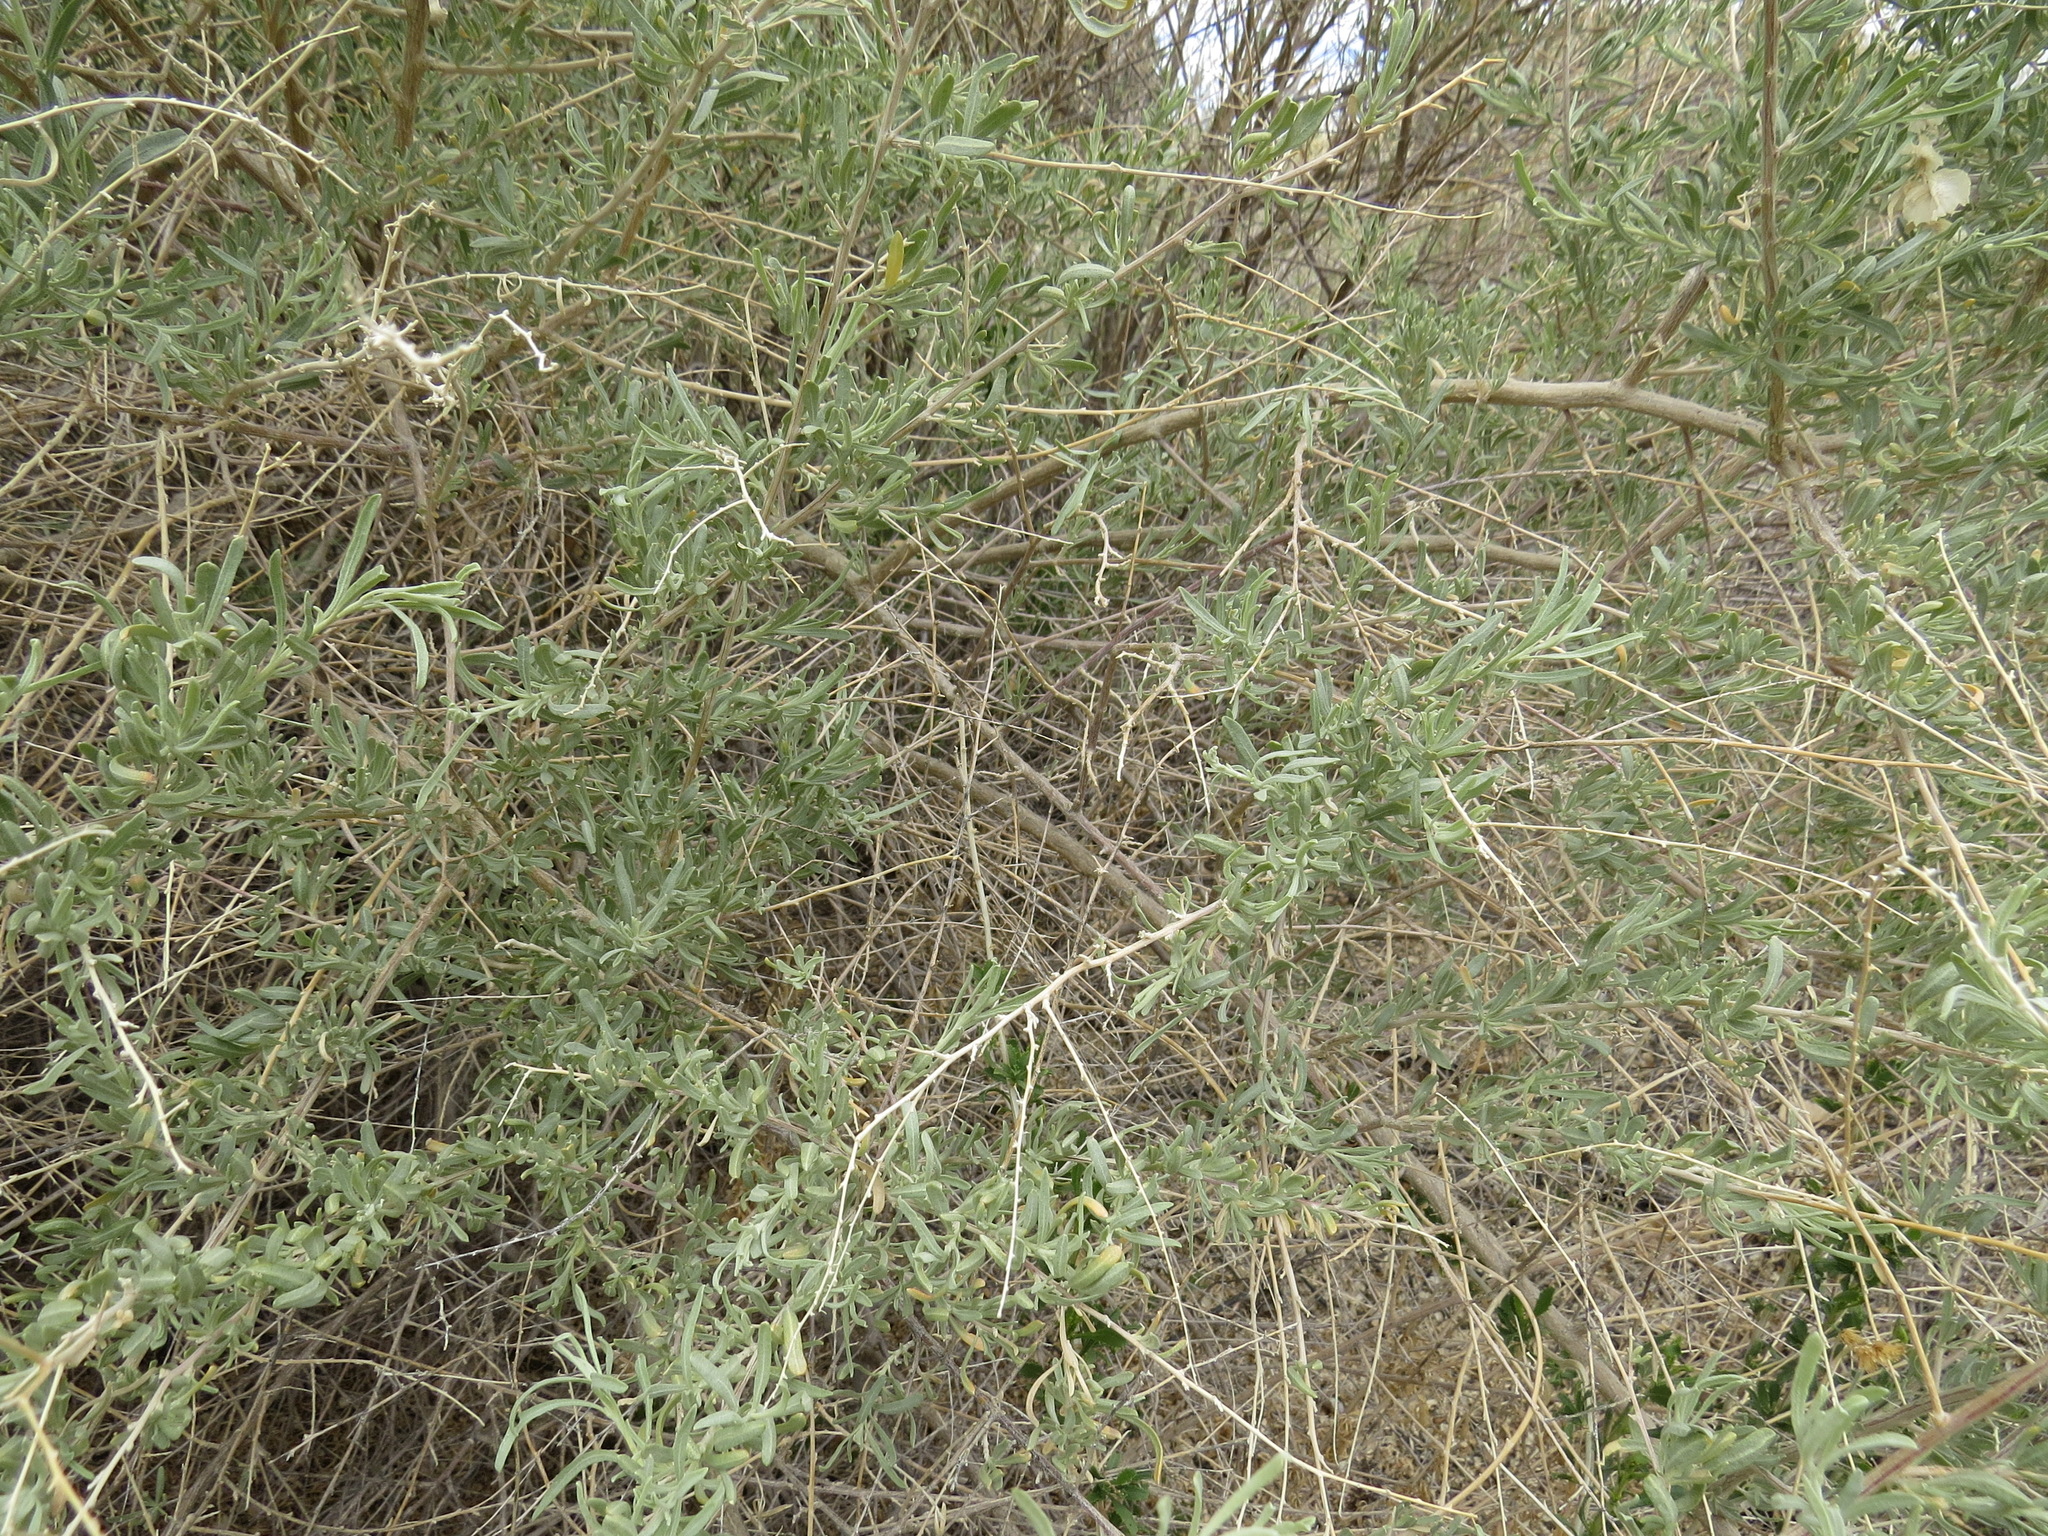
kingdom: Plantae
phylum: Tracheophyta
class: Magnoliopsida
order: Caryophyllales
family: Amaranthaceae
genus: Atriplex
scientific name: Atriplex canescens
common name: Four-wing saltbush
